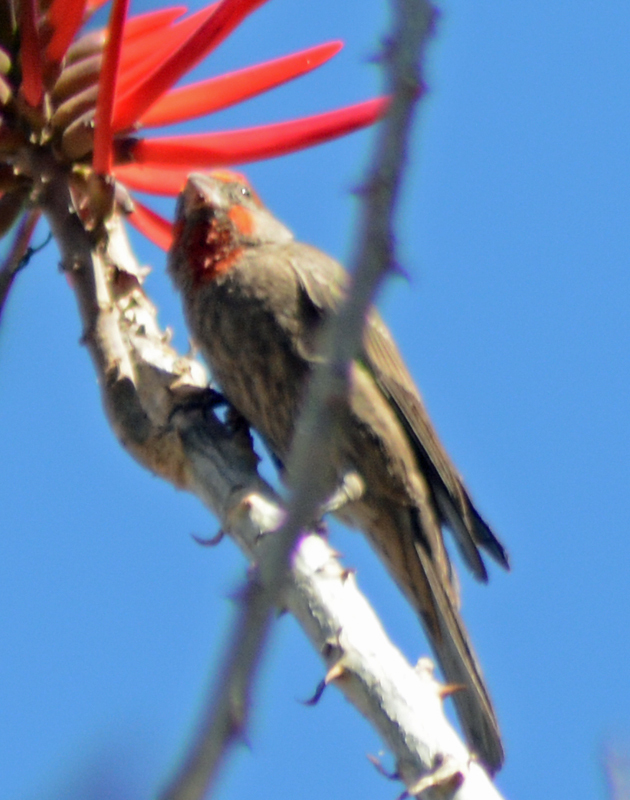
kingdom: Animalia
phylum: Chordata
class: Aves
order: Passeriformes
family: Fringillidae
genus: Haemorhous
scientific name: Haemorhous mexicanus
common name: House finch
